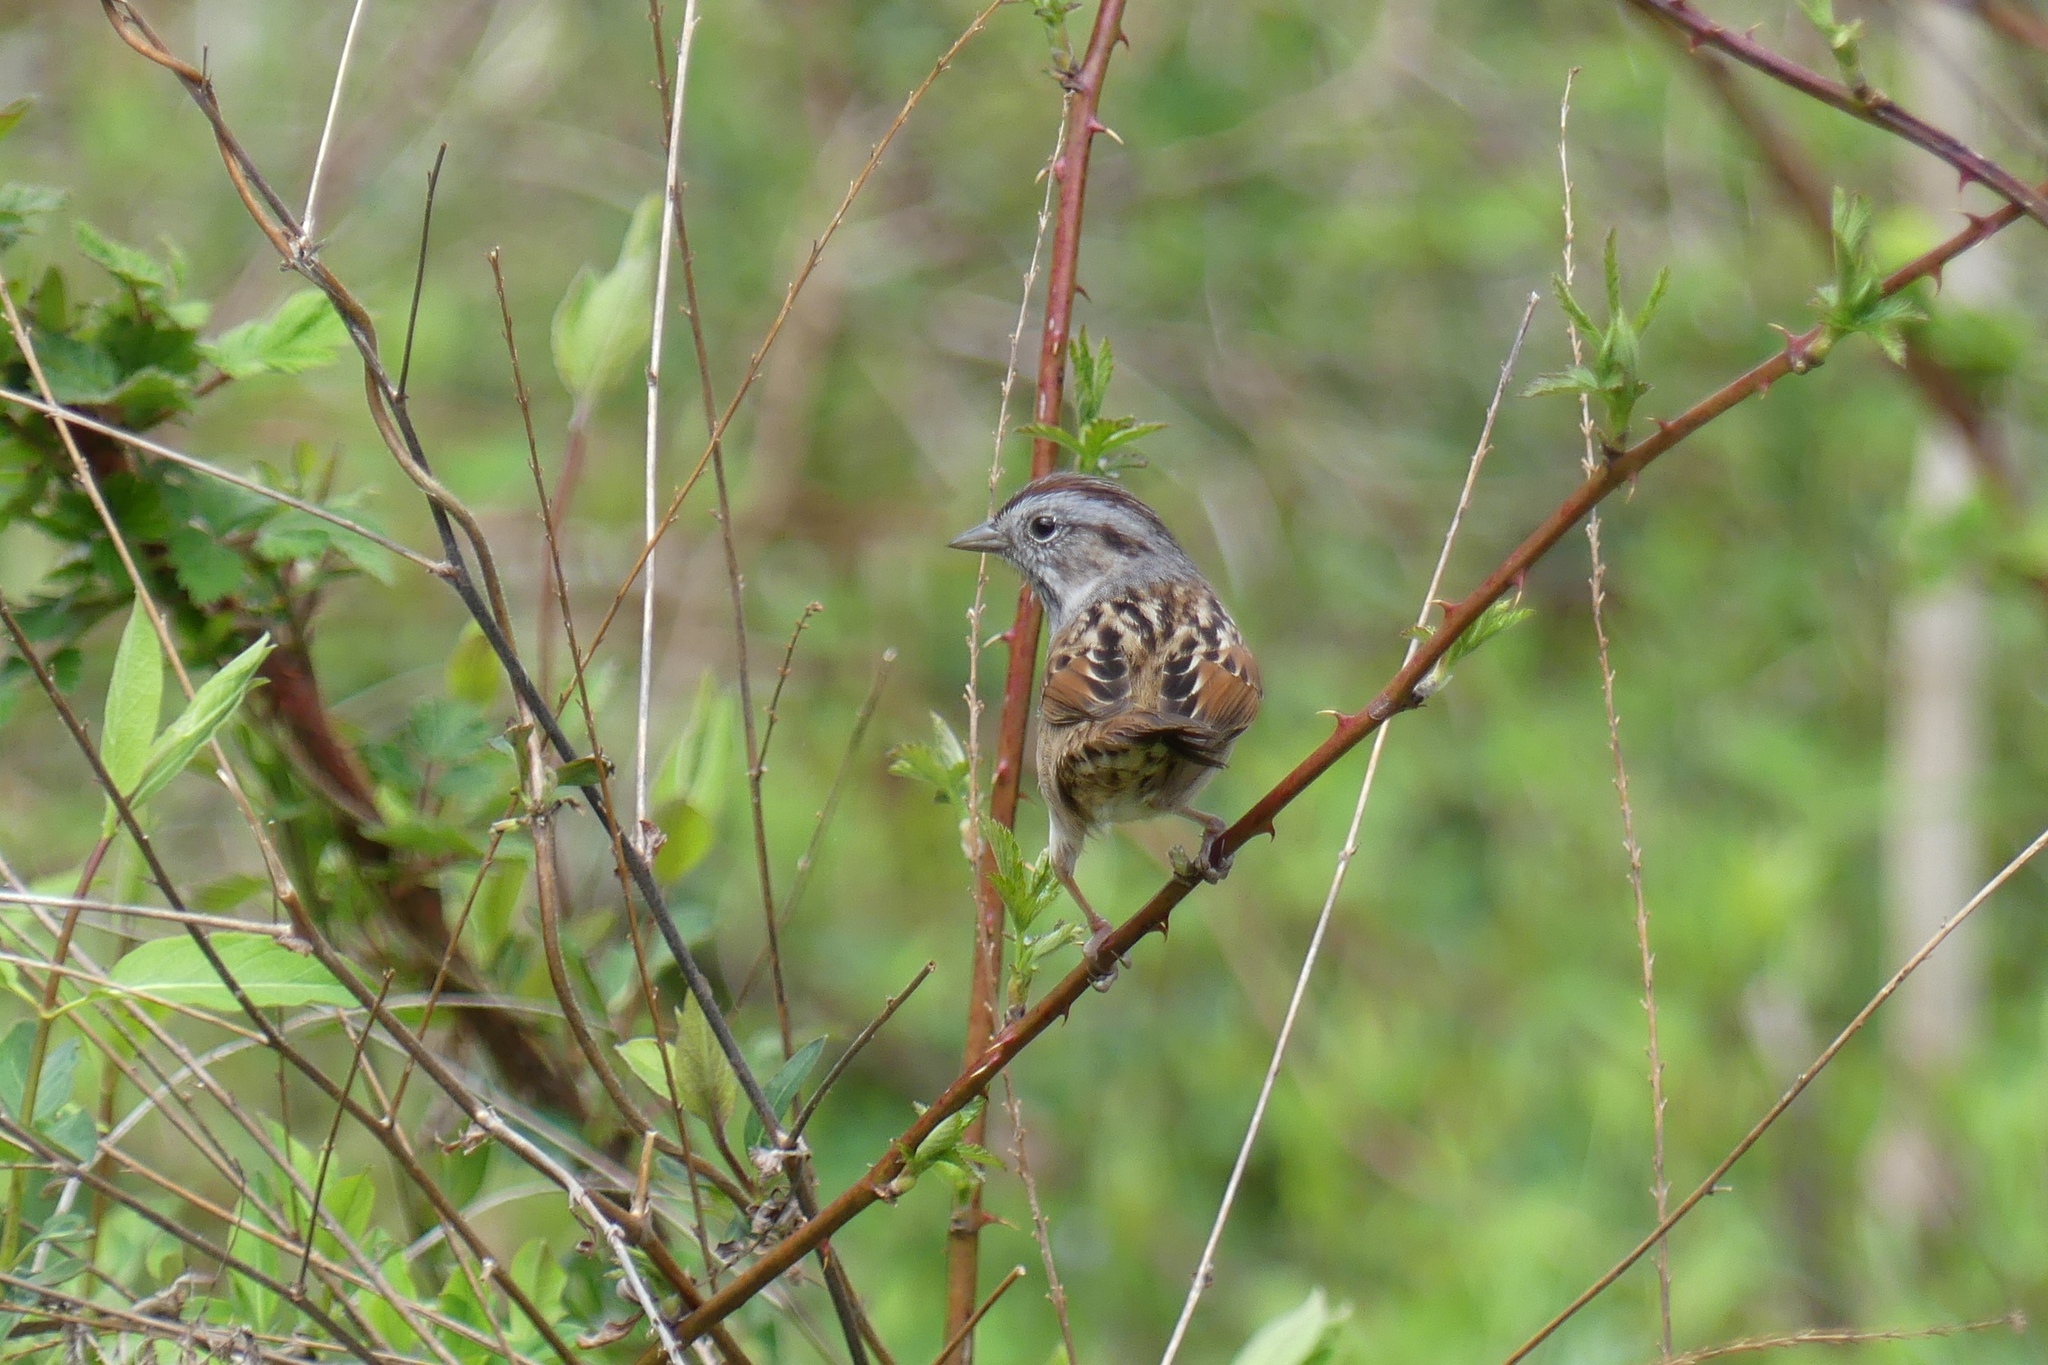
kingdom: Animalia
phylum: Chordata
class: Aves
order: Passeriformes
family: Passerellidae
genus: Melospiza
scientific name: Melospiza georgiana
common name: Swamp sparrow
